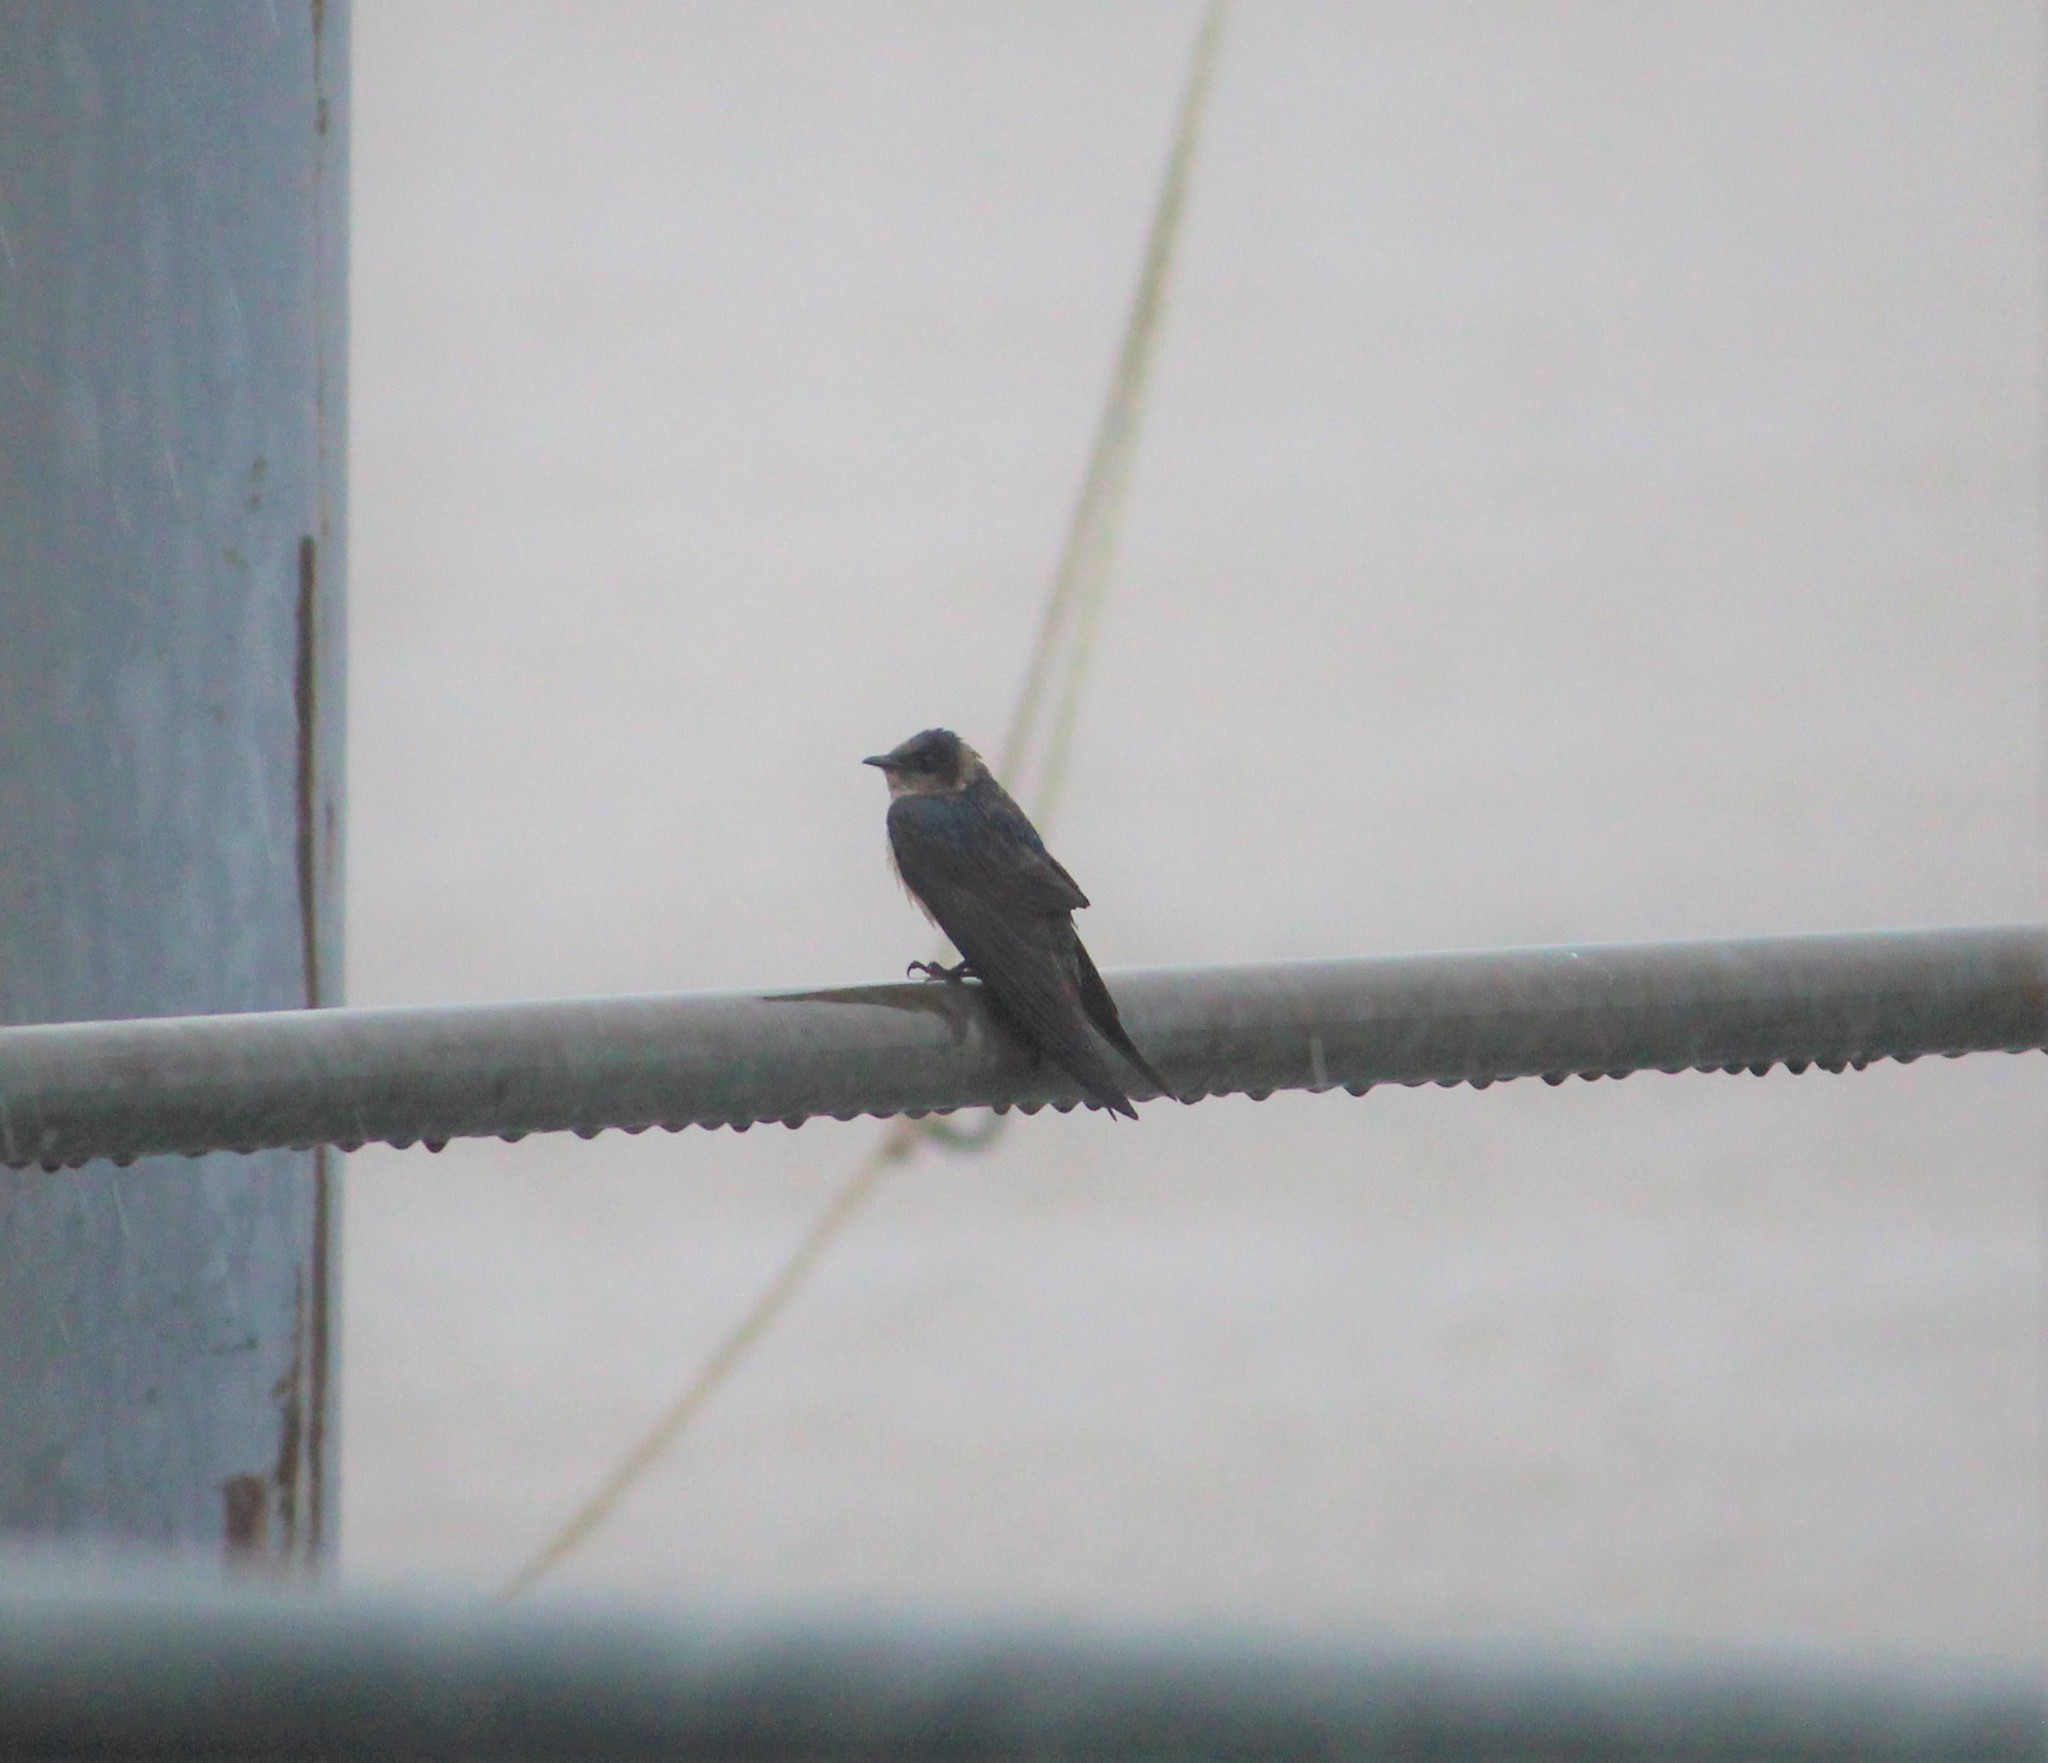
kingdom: Animalia
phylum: Chordata
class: Aves
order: Passeriformes
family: Hirundinidae
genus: Progne
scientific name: Progne subis
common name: Purple martin
